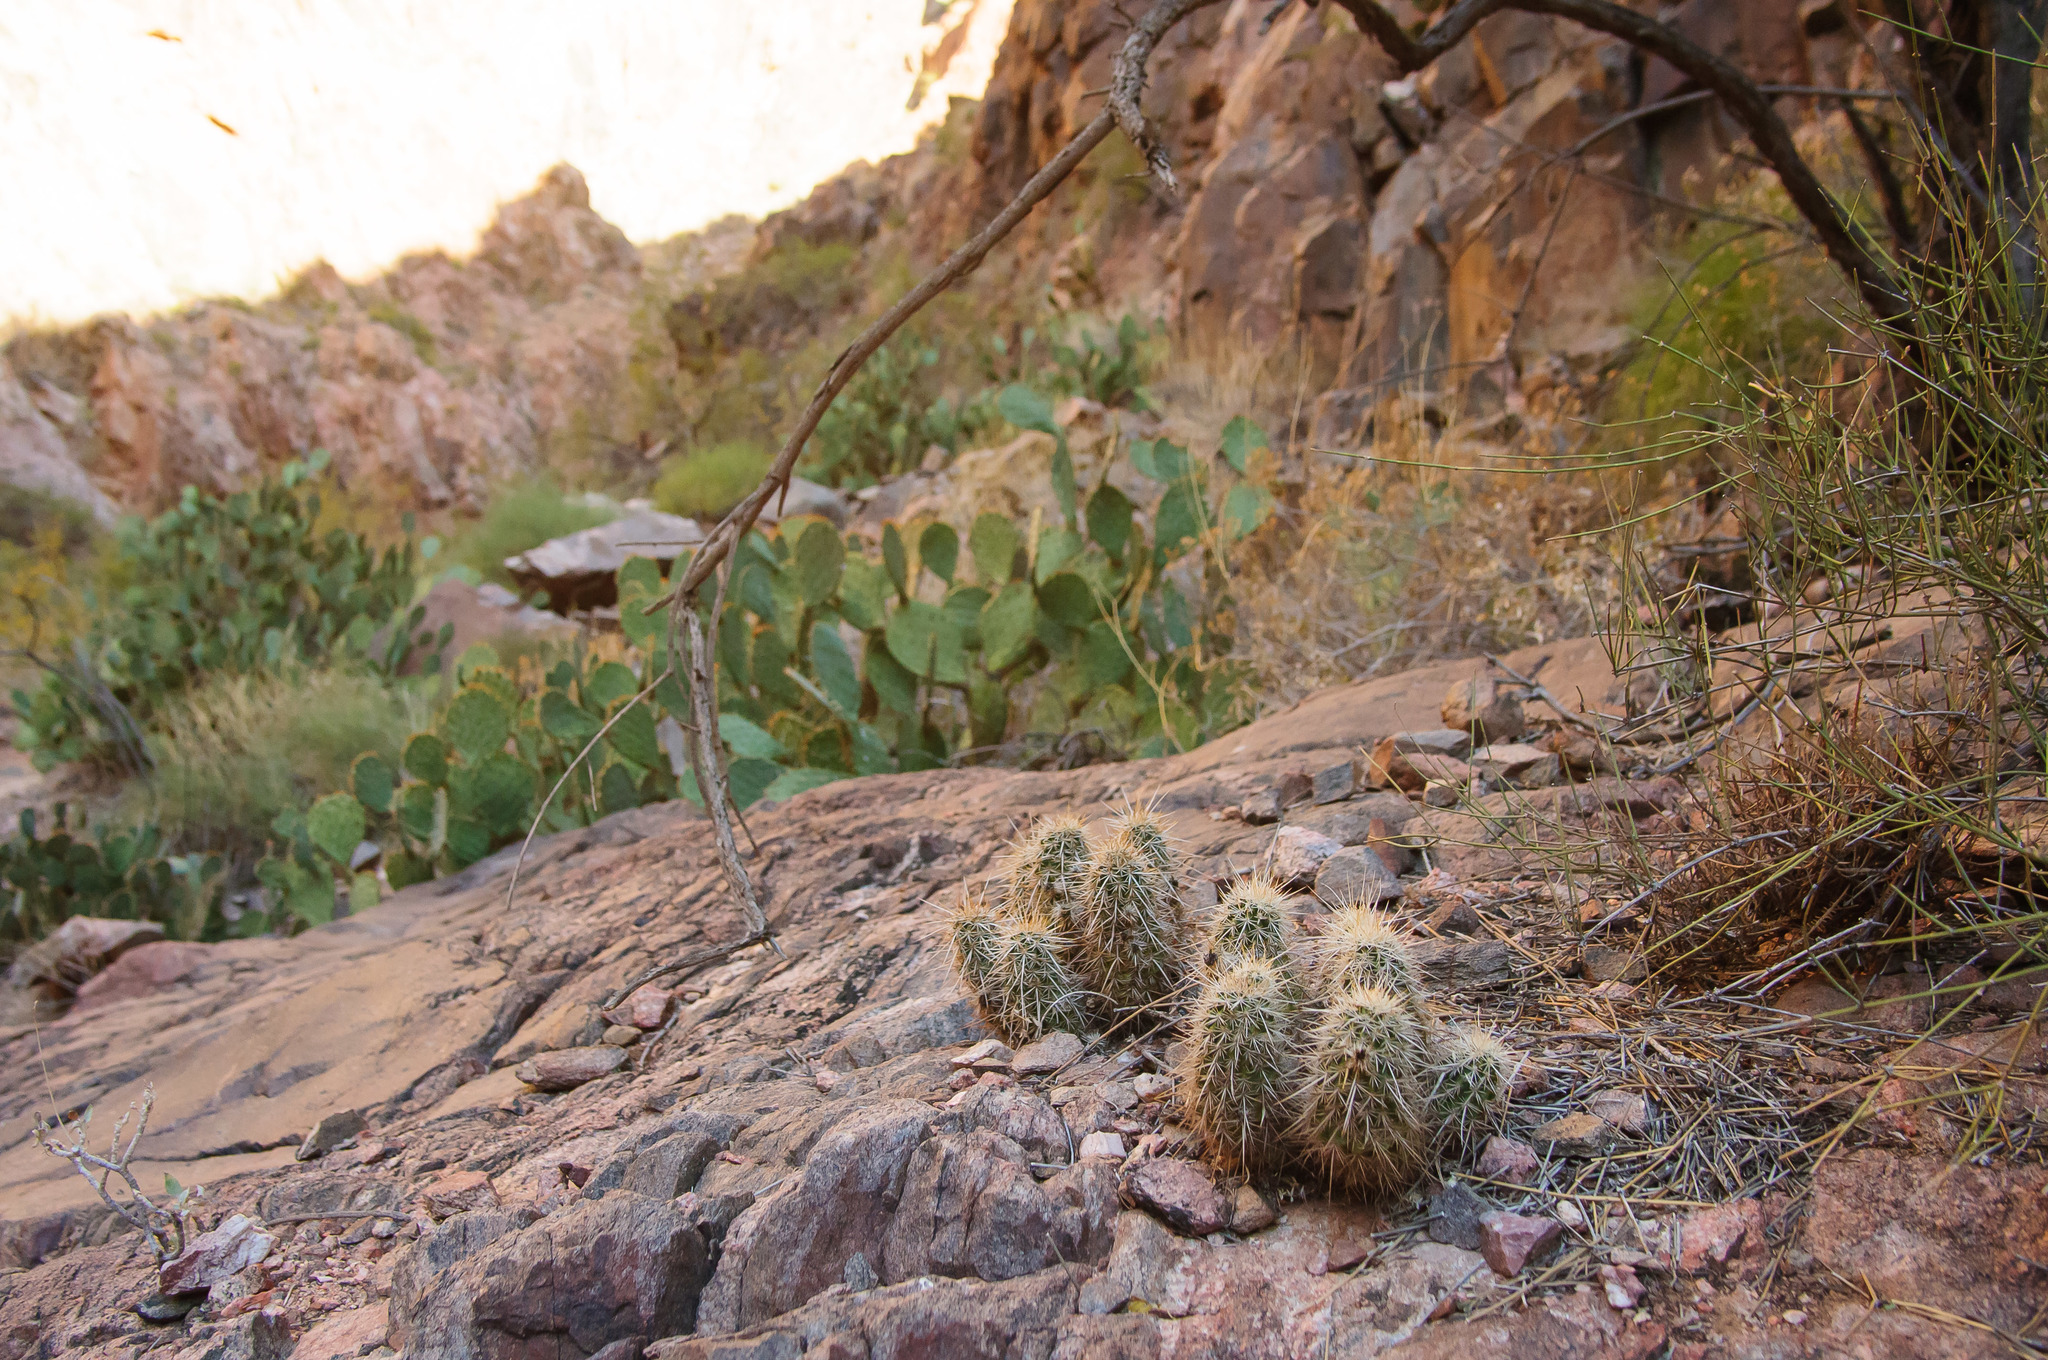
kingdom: Plantae
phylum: Tracheophyta
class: Magnoliopsida
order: Caryophyllales
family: Cactaceae
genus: Echinocereus
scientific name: Echinocereus engelmannii
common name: Engelmann's hedgehog cactus
